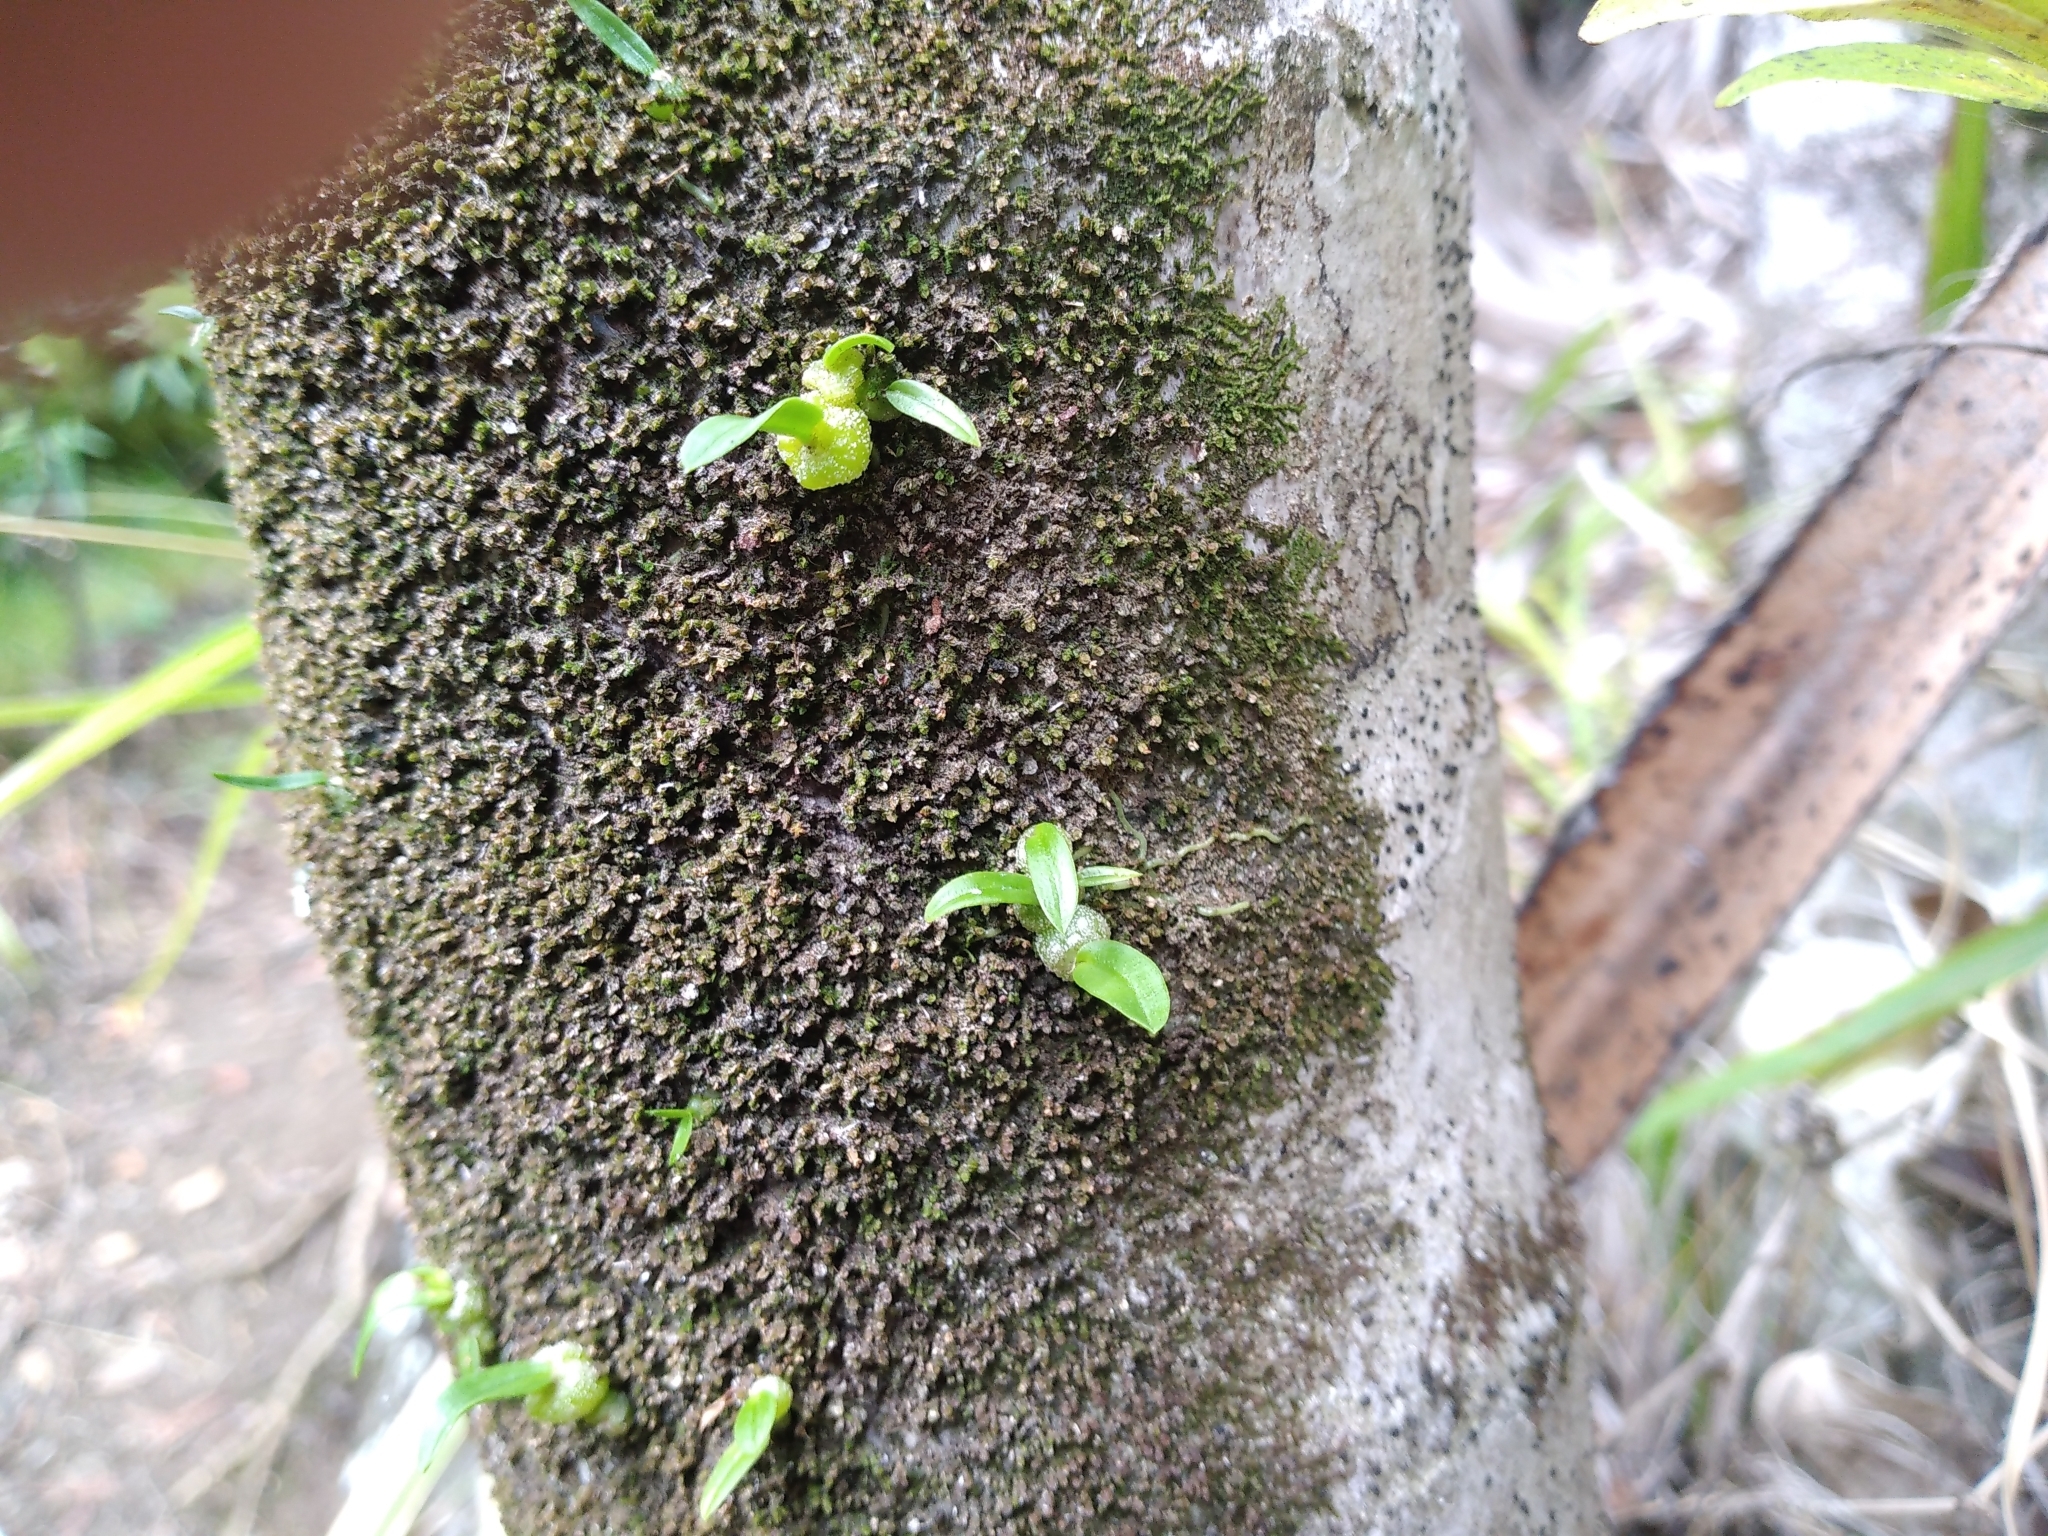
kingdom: Plantae
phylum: Tracheophyta
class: Liliopsida
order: Asparagales
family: Orchidaceae
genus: Bulbophyllum
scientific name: Bulbophyllum argyropus
